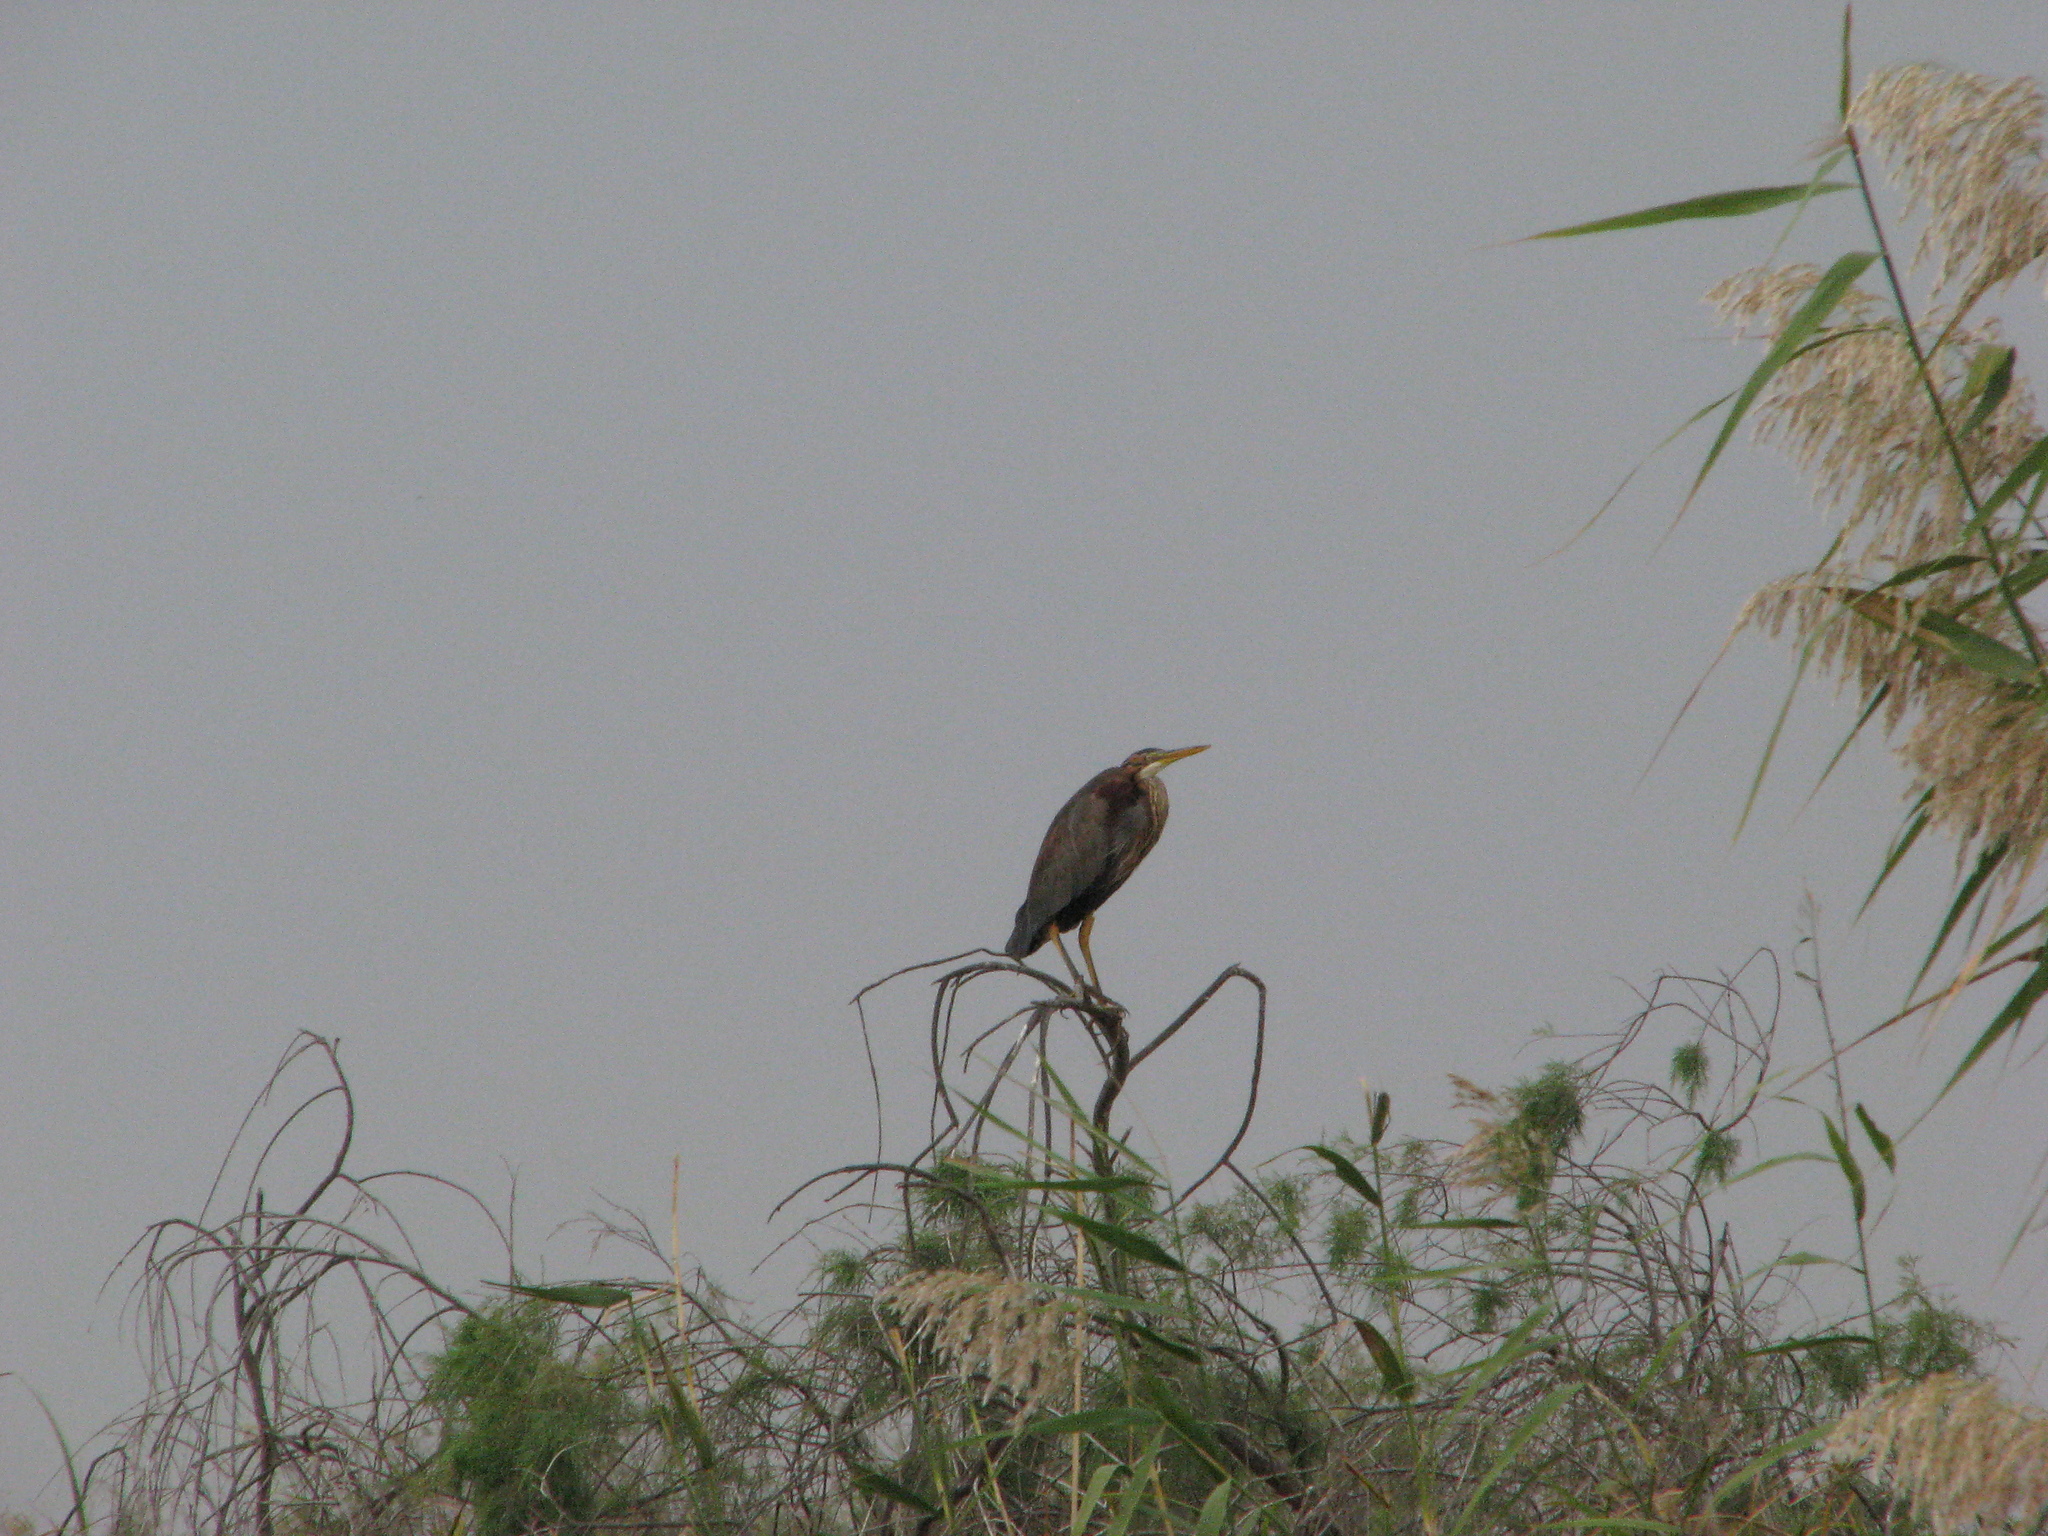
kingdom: Animalia
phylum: Chordata
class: Aves
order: Pelecaniformes
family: Ardeidae
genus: Ardea
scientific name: Ardea purpurea
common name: Purple heron
